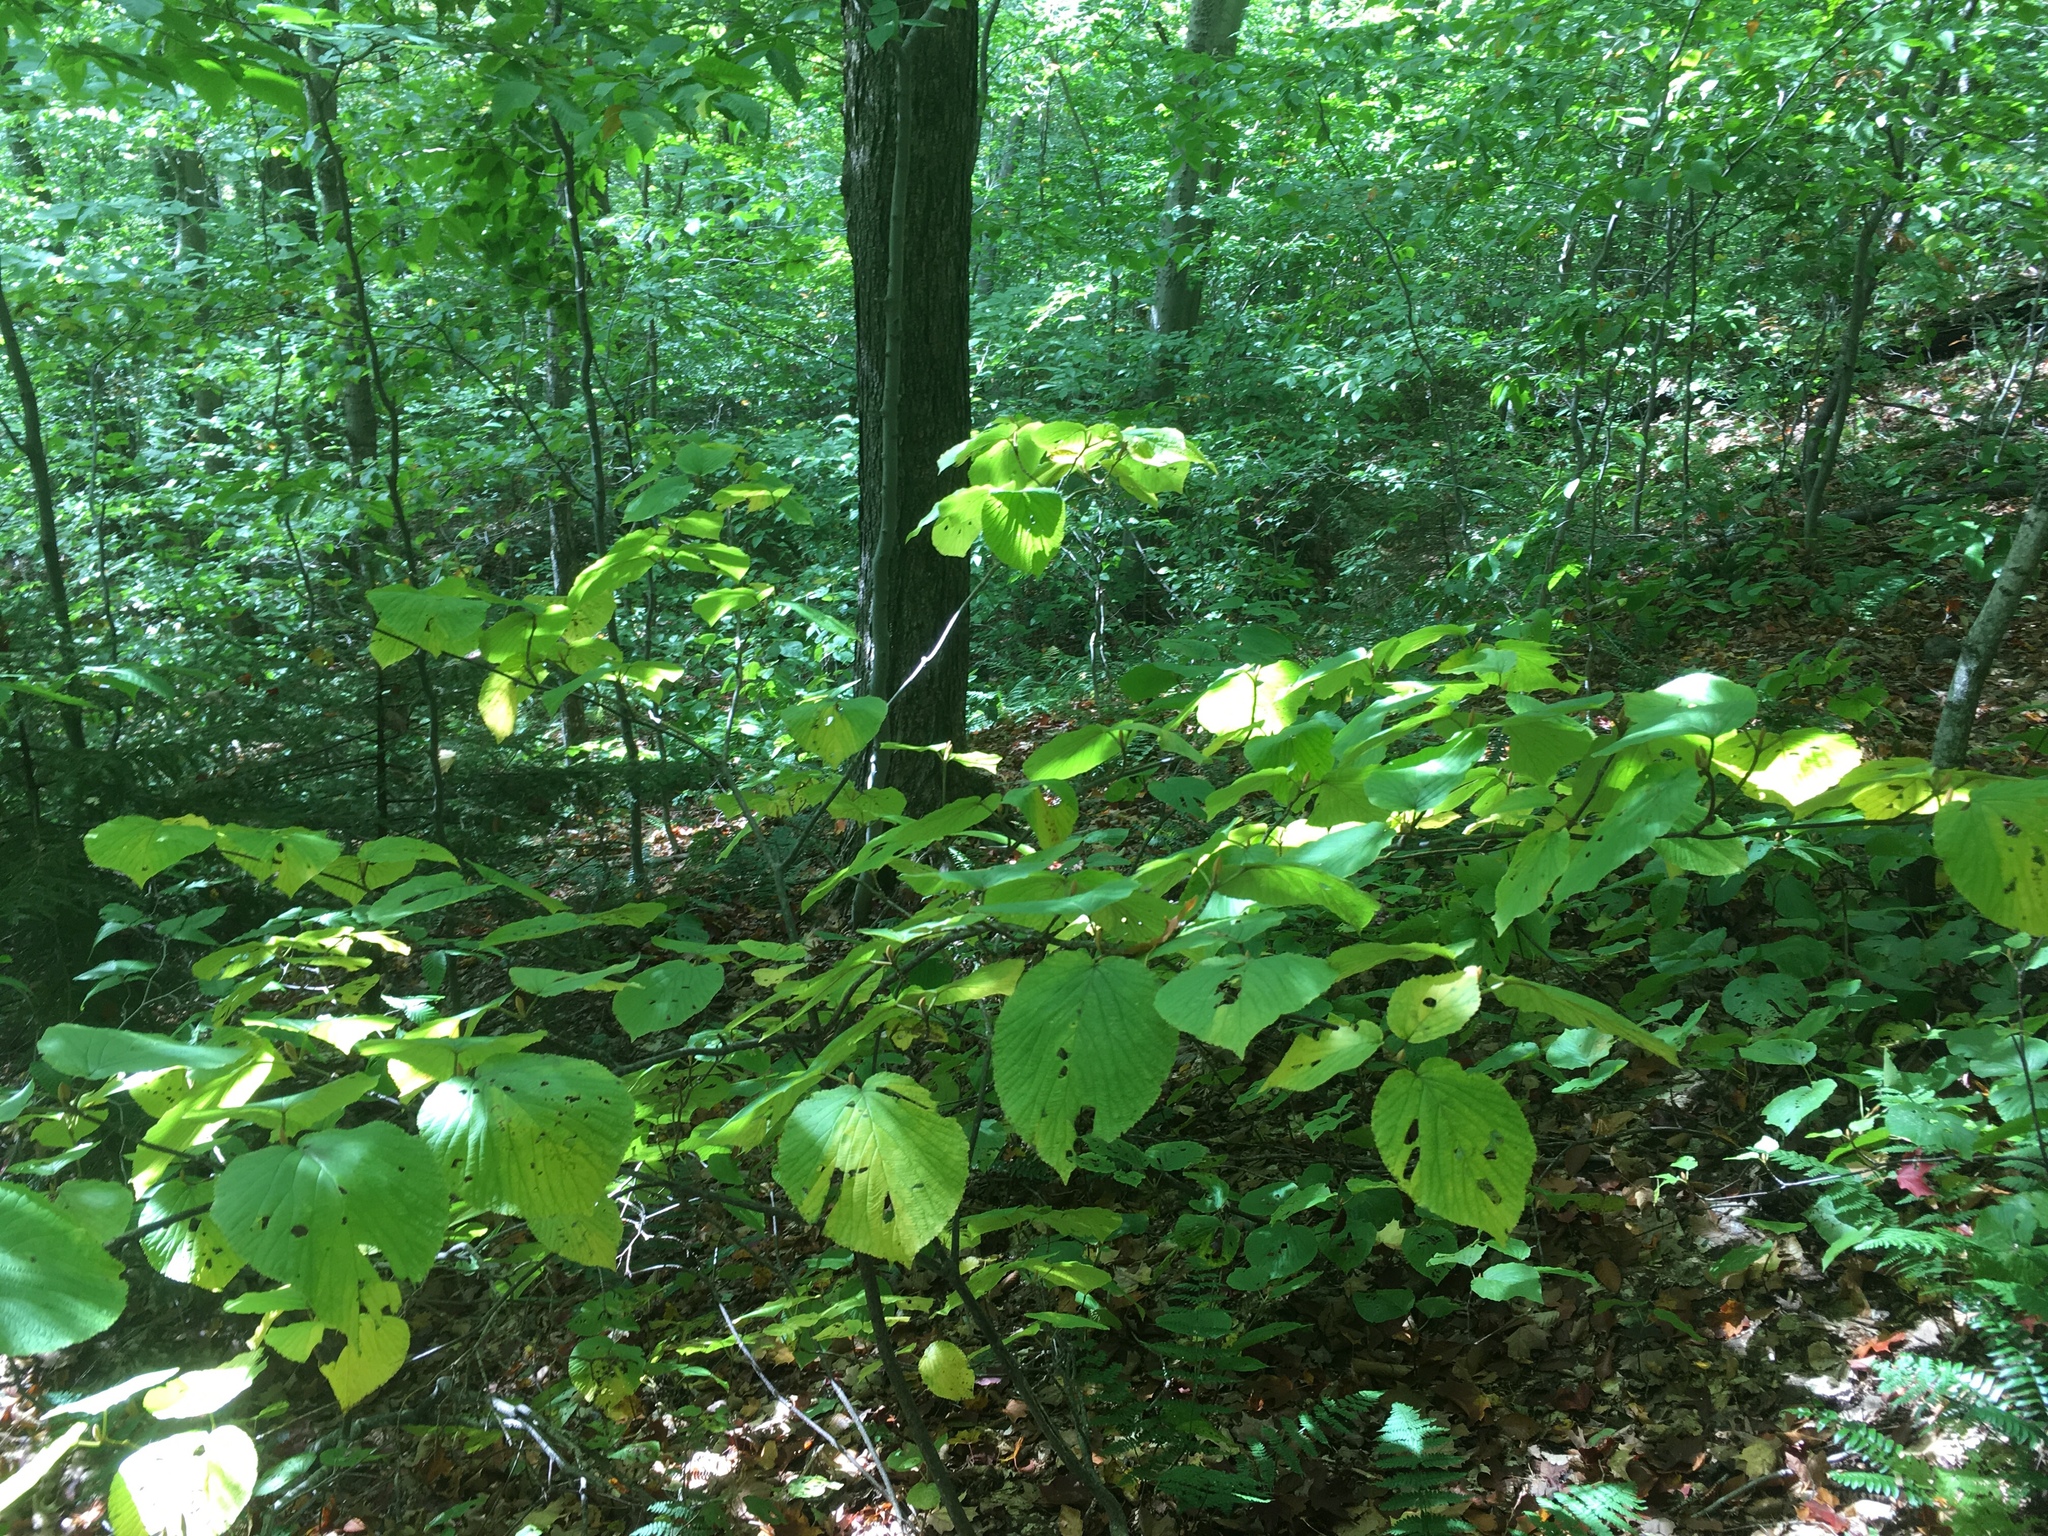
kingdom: Plantae
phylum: Tracheophyta
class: Magnoliopsida
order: Dipsacales
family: Viburnaceae
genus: Viburnum
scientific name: Viburnum lantanoides
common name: Hobblebush
